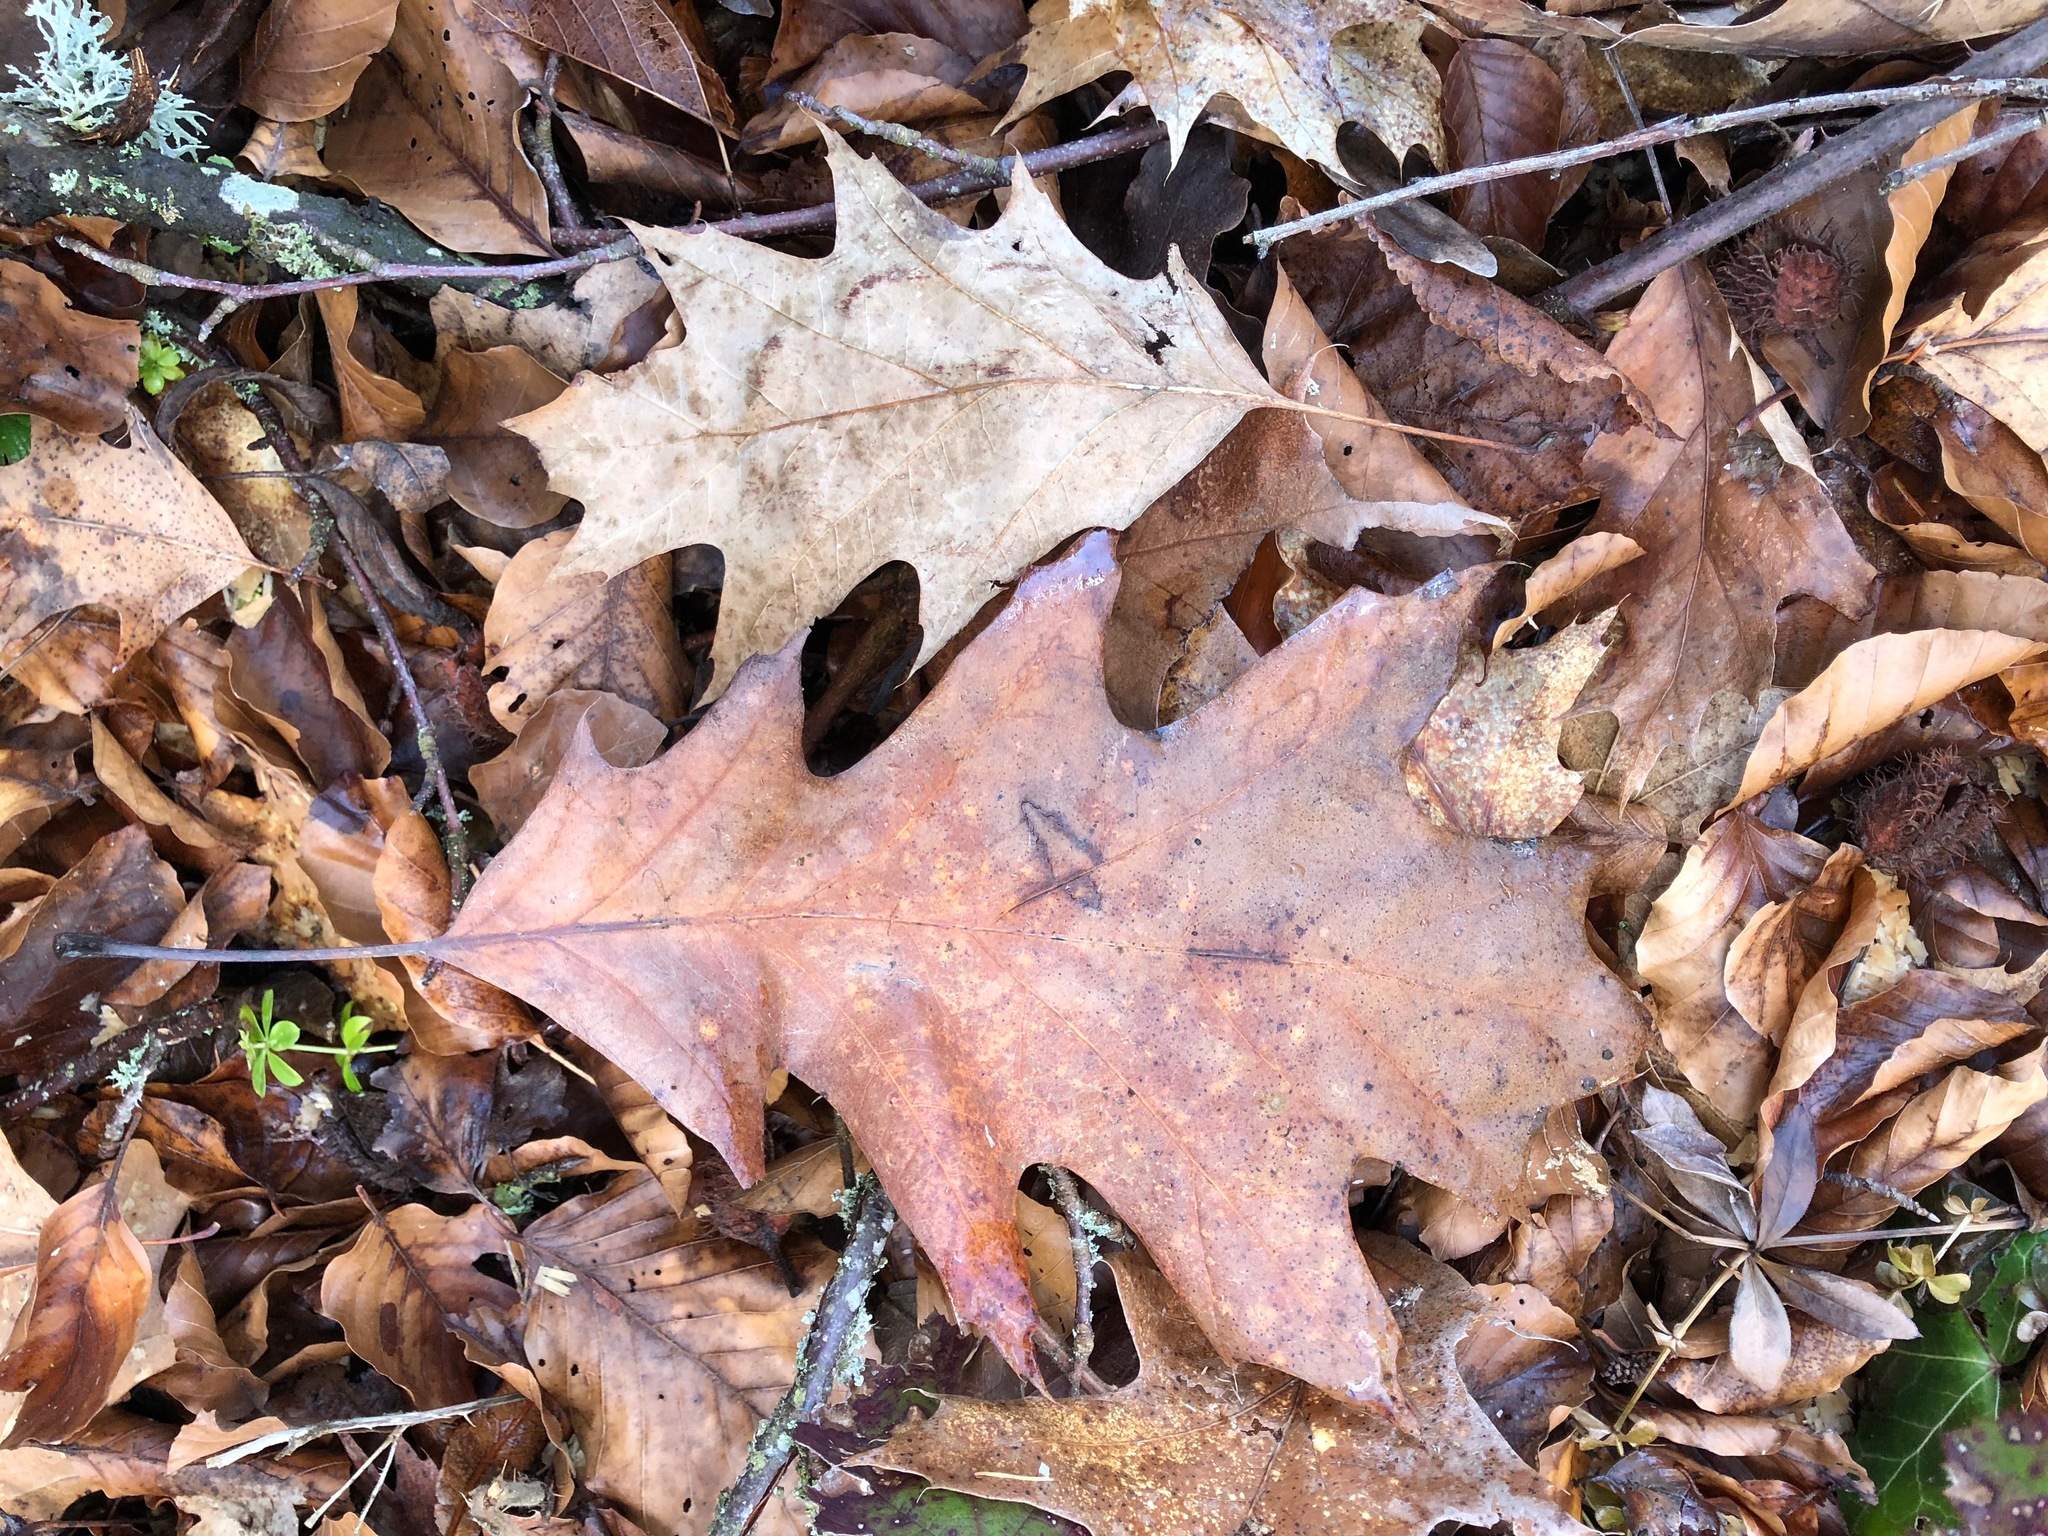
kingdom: Plantae
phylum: Tracheophyta
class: Magnoliopsida
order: Fagales
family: Fagaceae
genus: Quercus
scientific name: Quercus rubra
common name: Red oak
